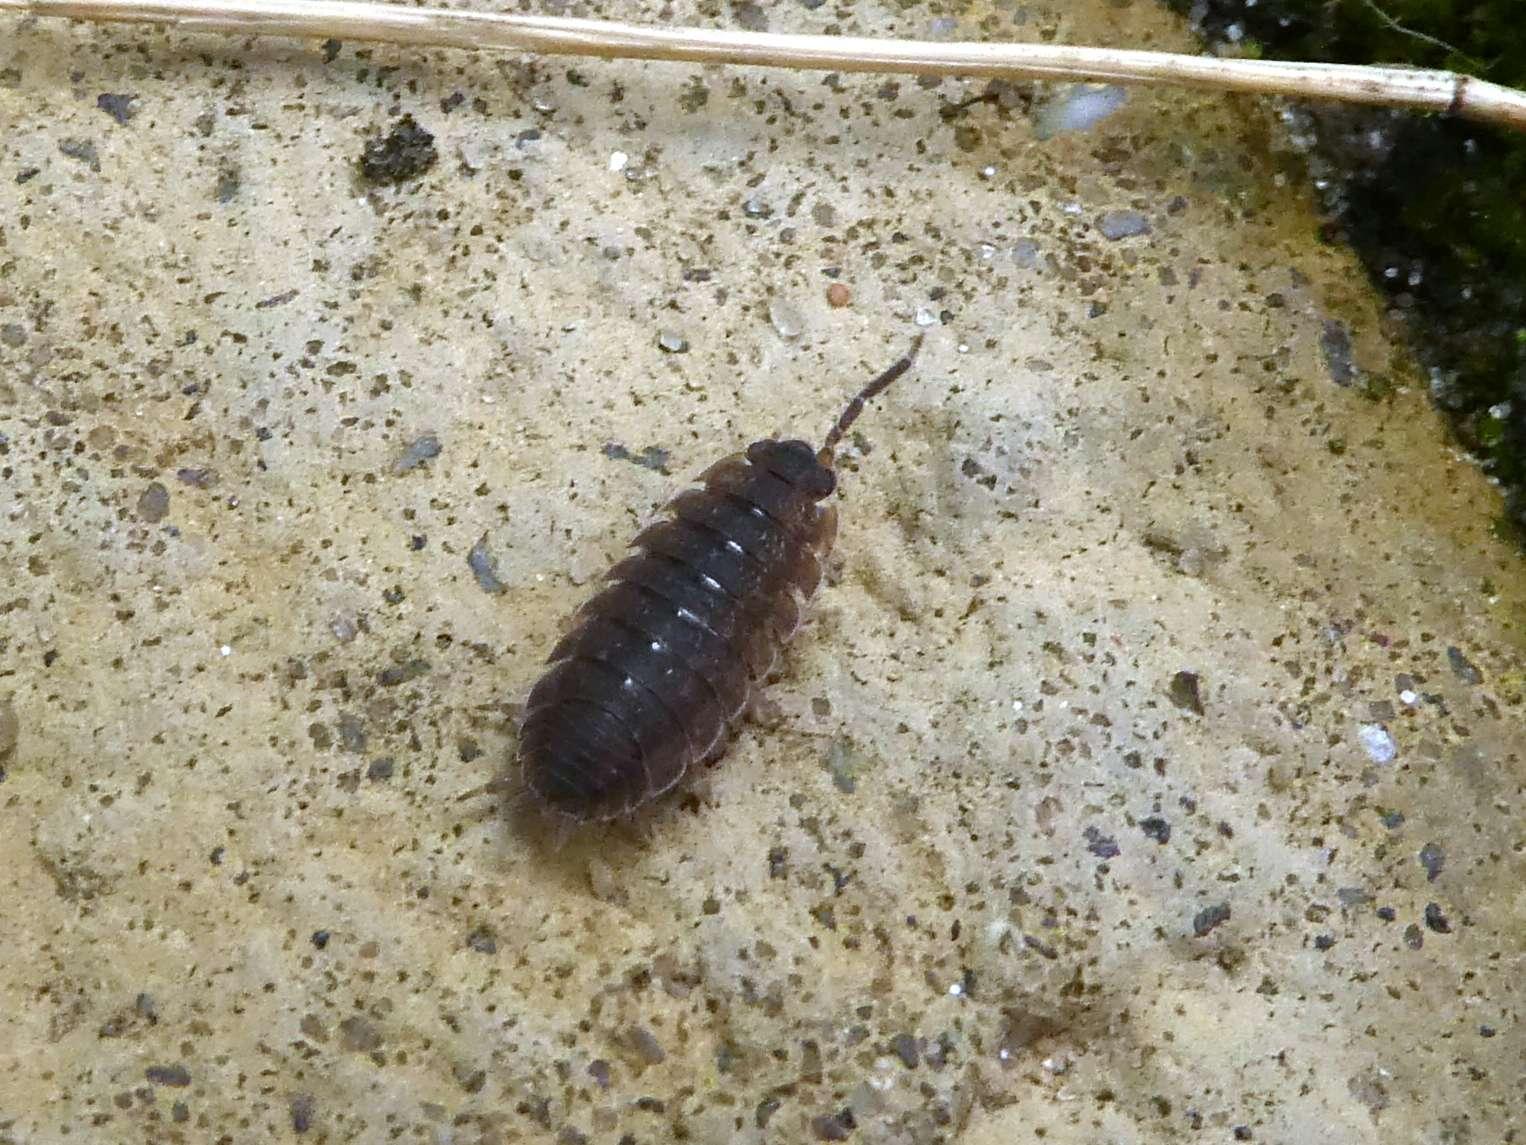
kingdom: Animalia
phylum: Arthropoda
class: Malacostraca
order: Isopoda
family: Porcellionidae
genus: Porcellio
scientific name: Porcellio scaber
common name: Common rough woodlouse
